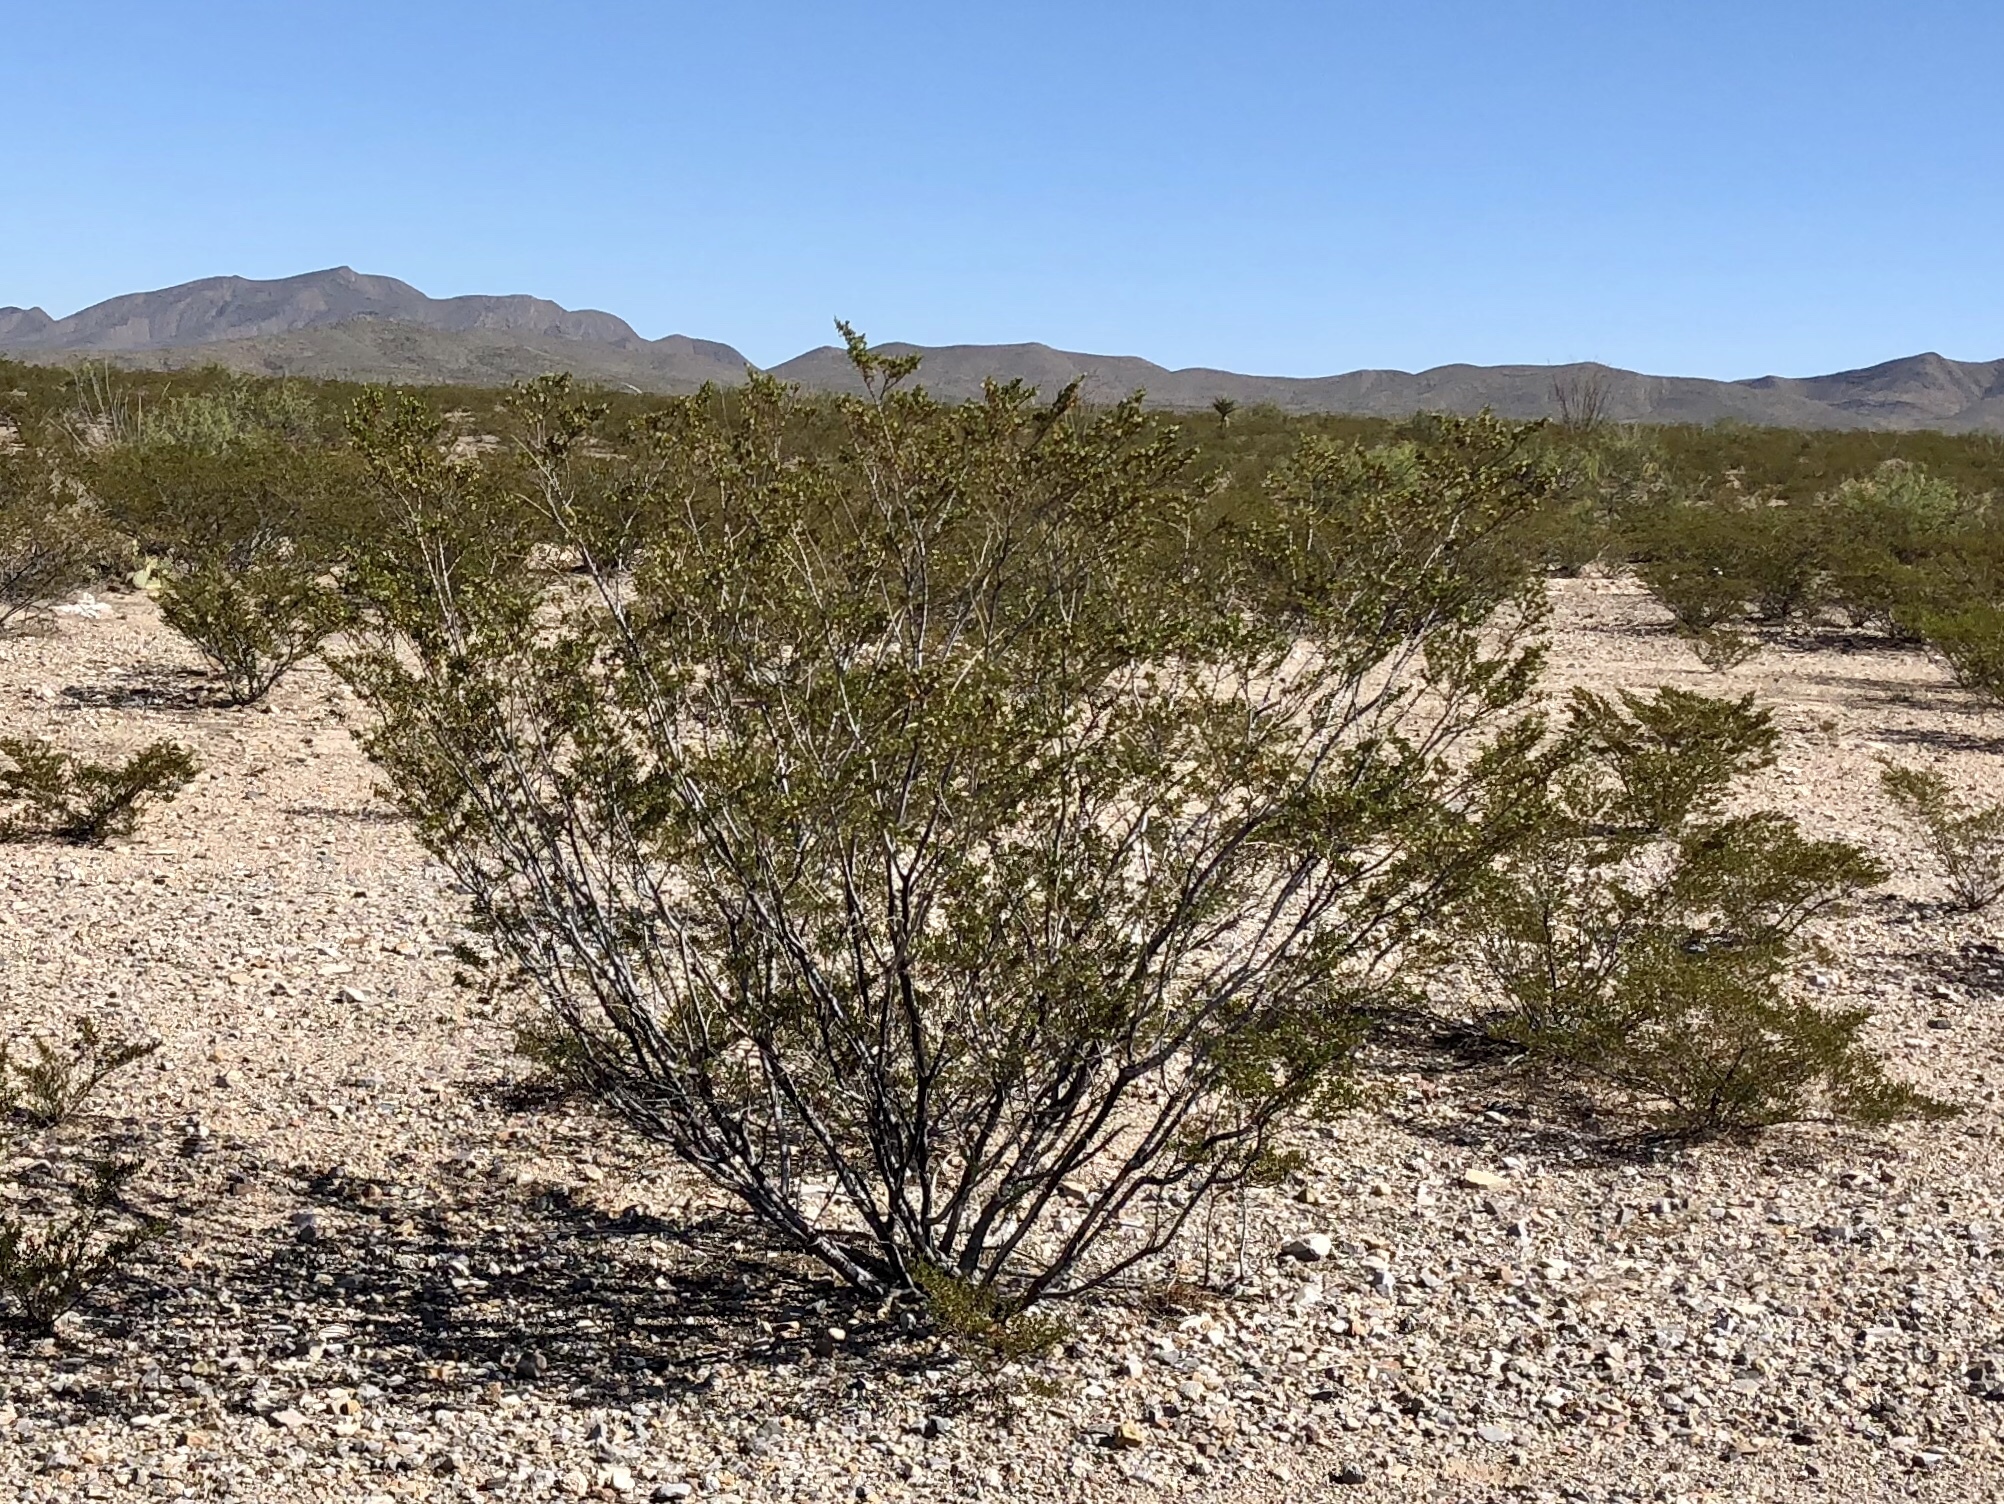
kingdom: Plantae
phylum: Tracheophyta
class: Magnoliopsida
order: Zygophyllales
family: Zygophyllaceae
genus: Larrea
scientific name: Larrea tridentata
